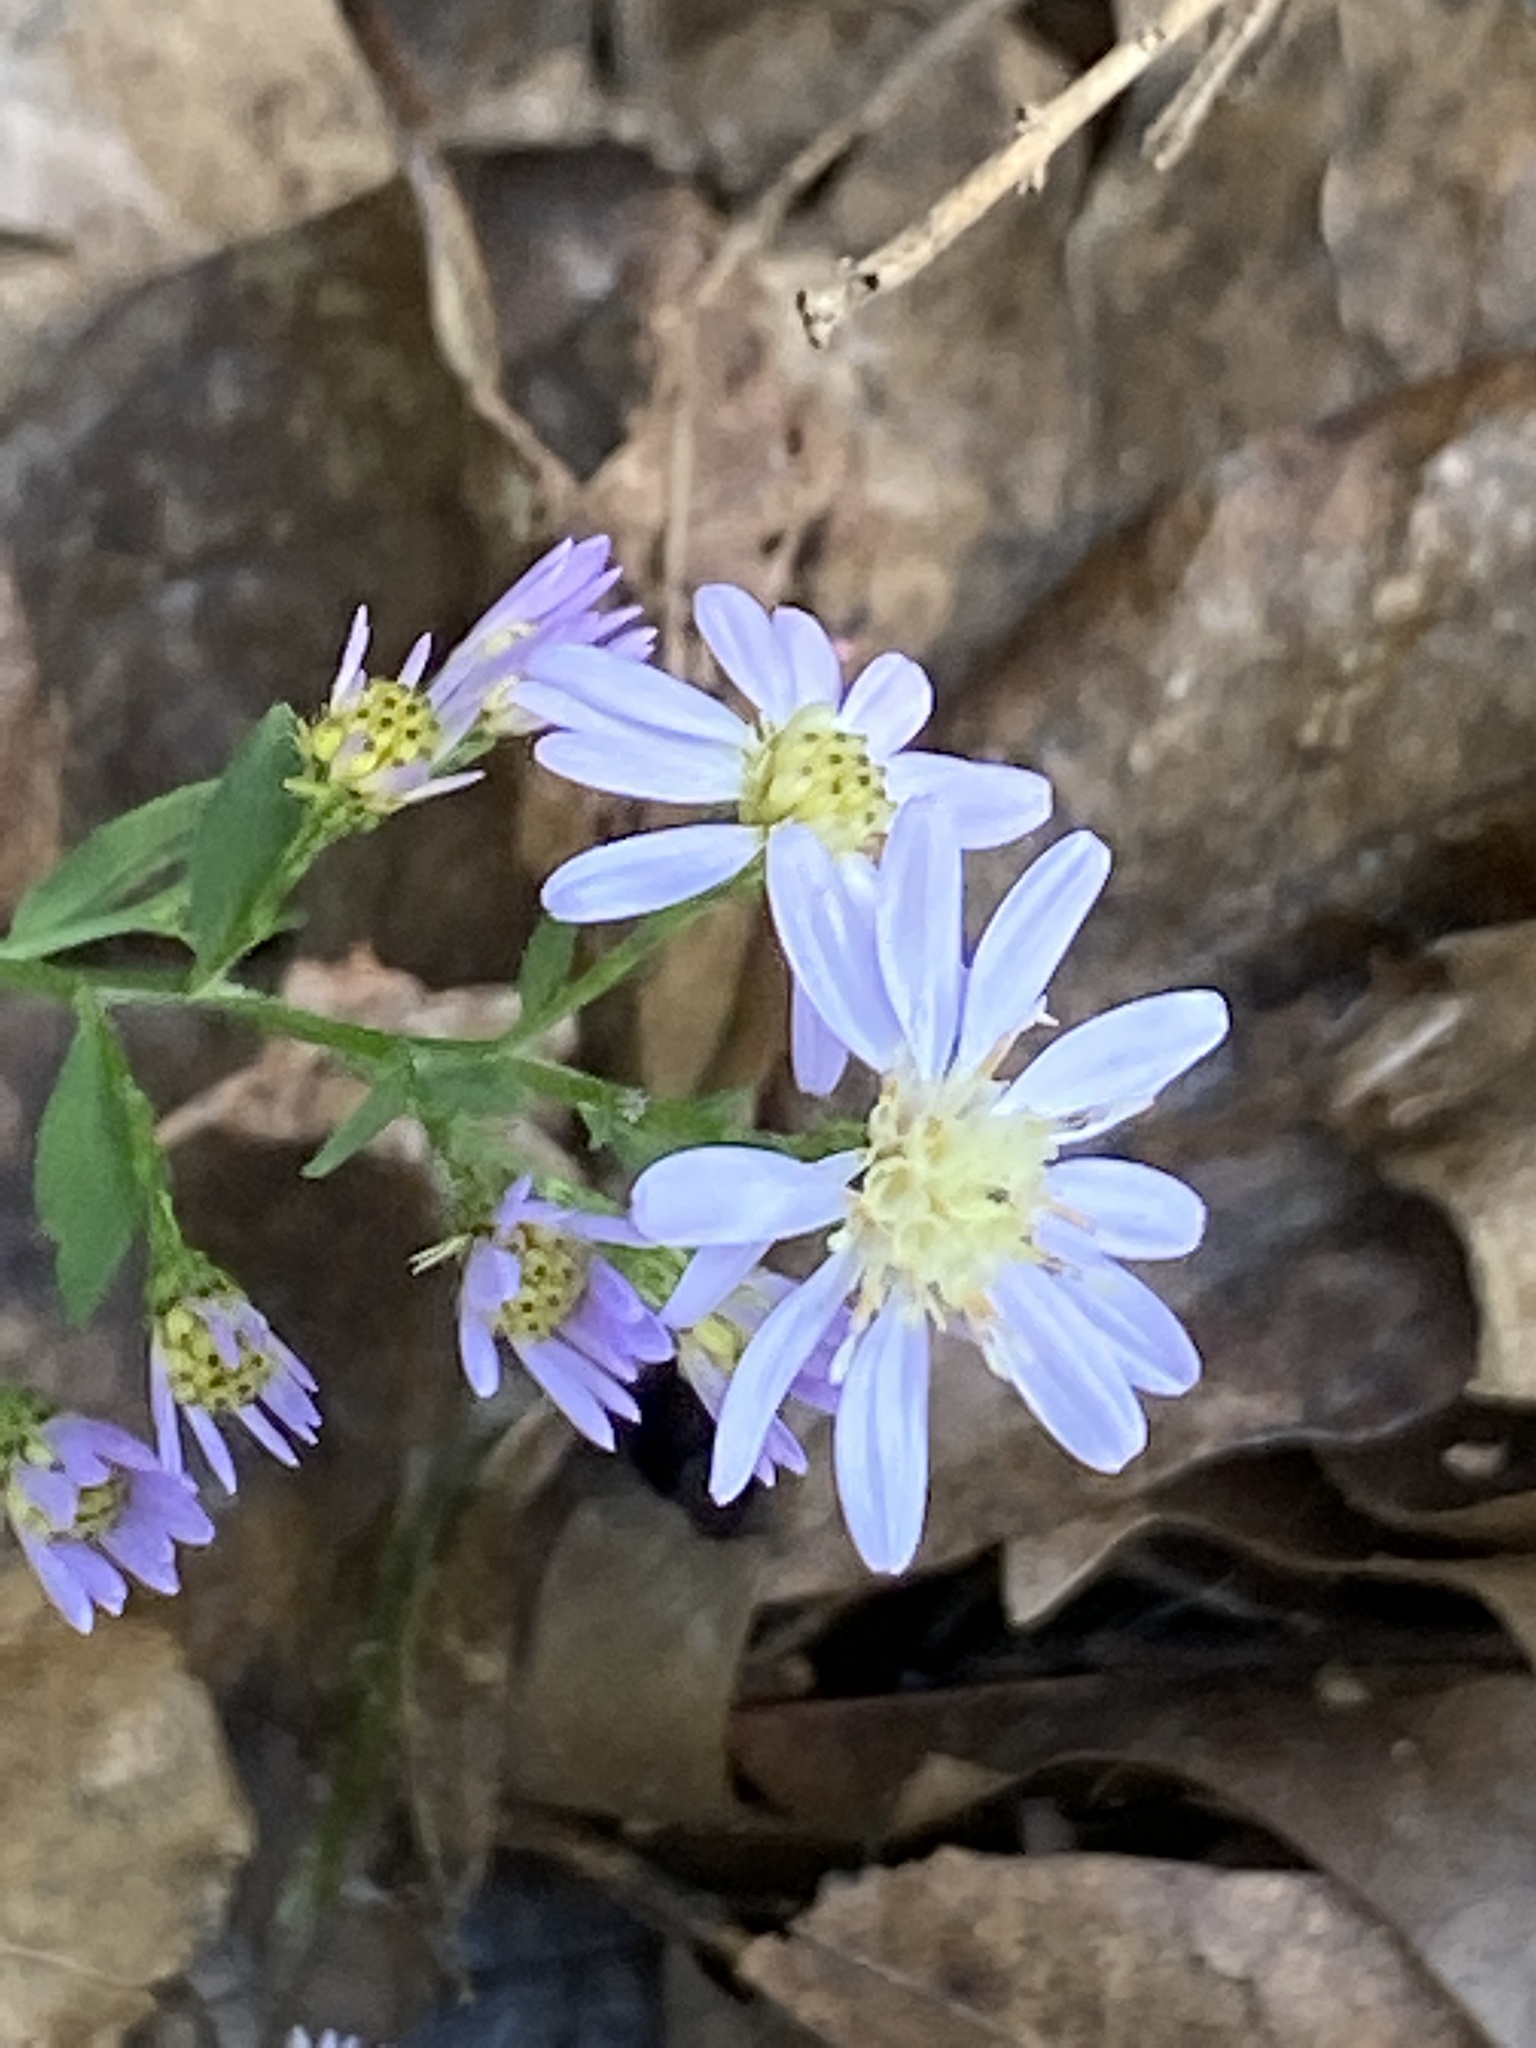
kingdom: Plantae
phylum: Tracheophyta
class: Magnoliopsida
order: Asterales
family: Asteraceae
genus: Symphyotrichum
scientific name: Symphyotrichum cordifolium
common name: Beeweed
